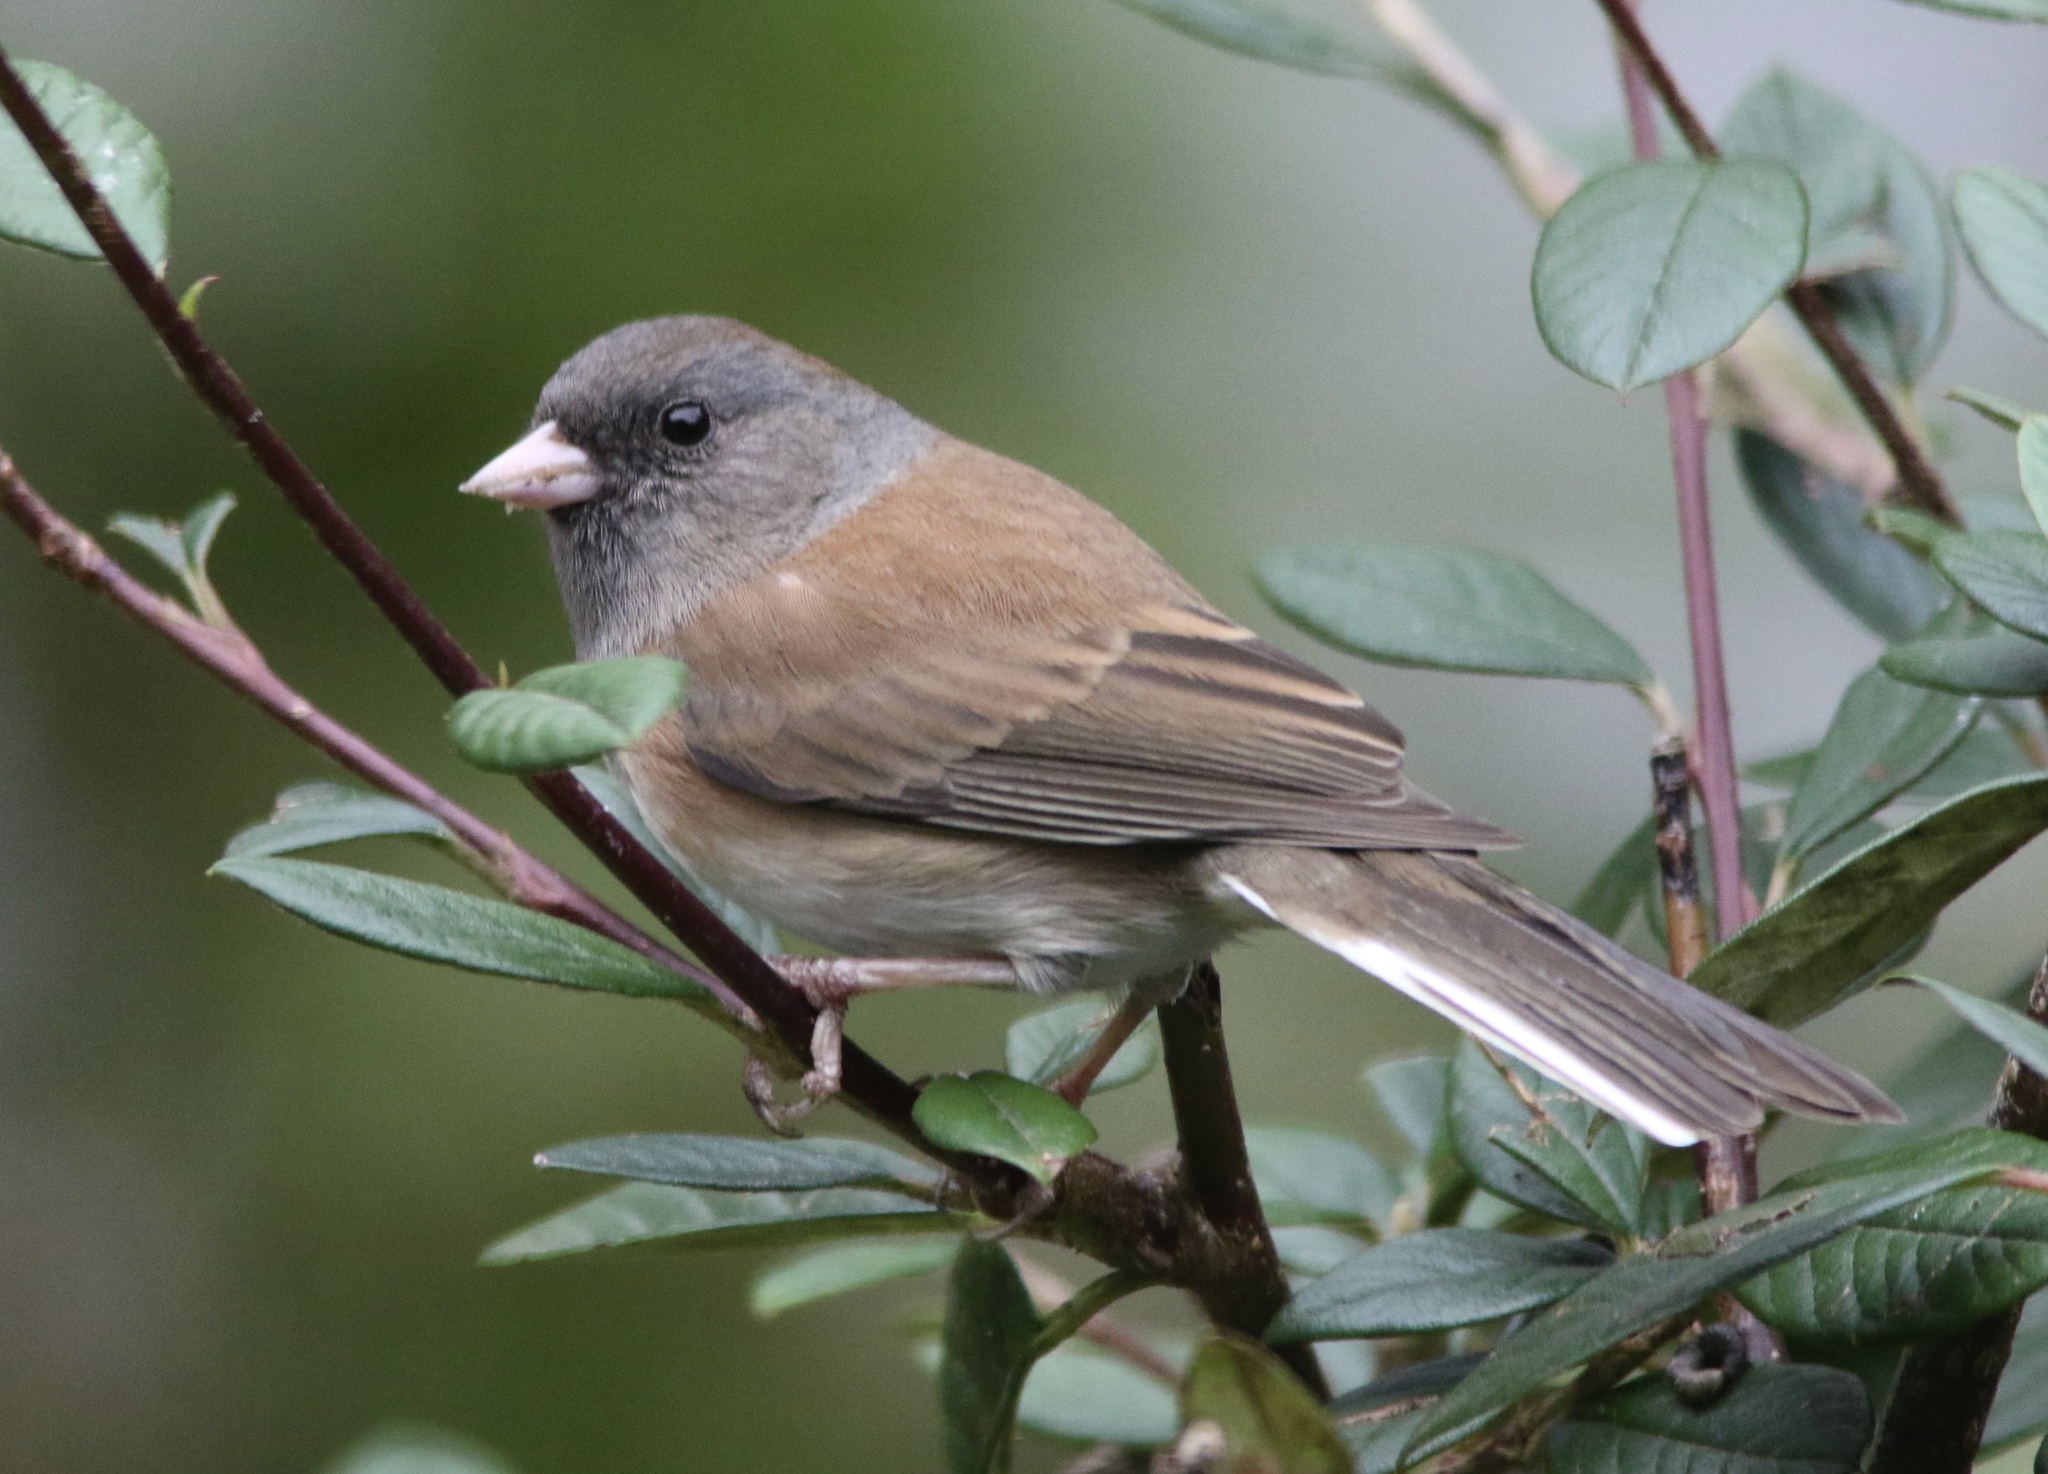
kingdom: Animalia
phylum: Chordata
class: Aves
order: Passeriformes
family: Passerellidae
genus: Junco
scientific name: Junco hyemalis
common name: Dark-eyed junco
